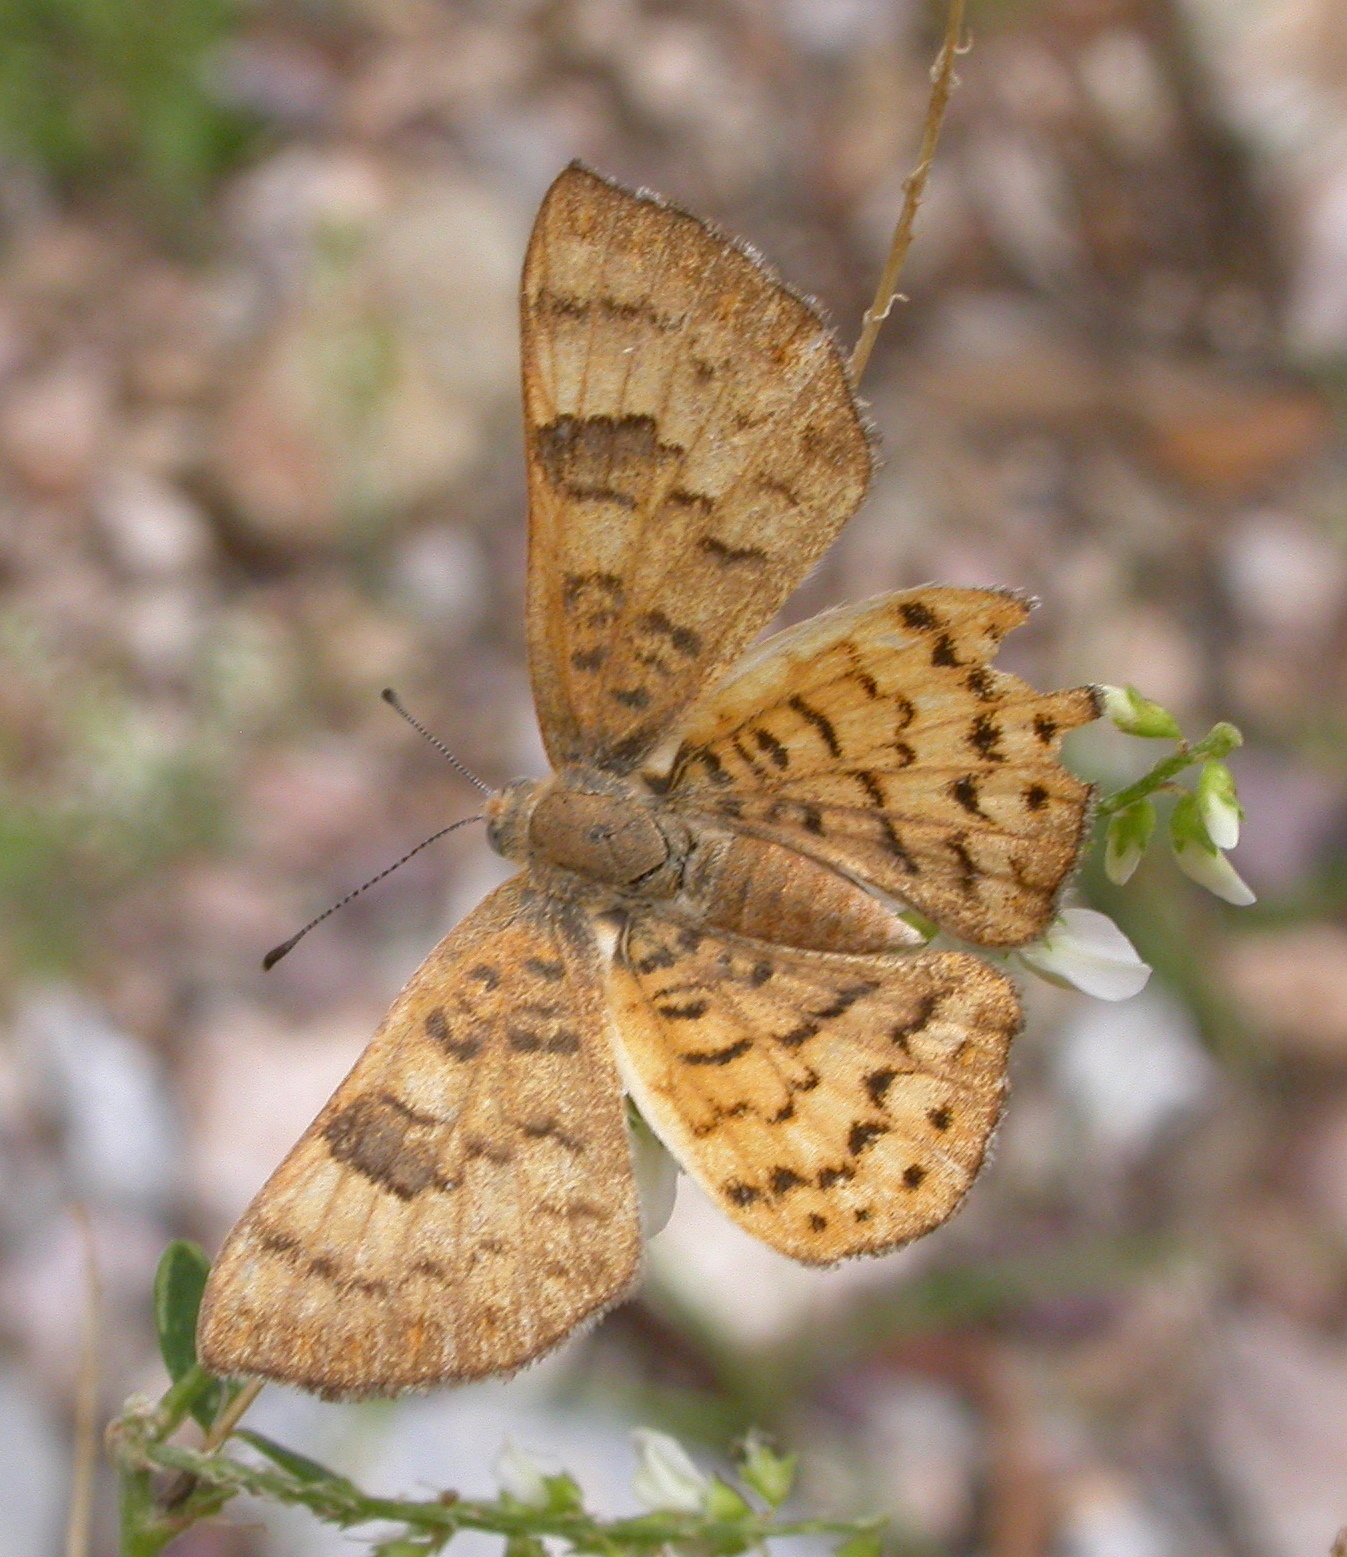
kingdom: Animalia
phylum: Arthropoda
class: Insecta
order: Lepidoptera
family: Riodinidae
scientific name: Riodinidae
